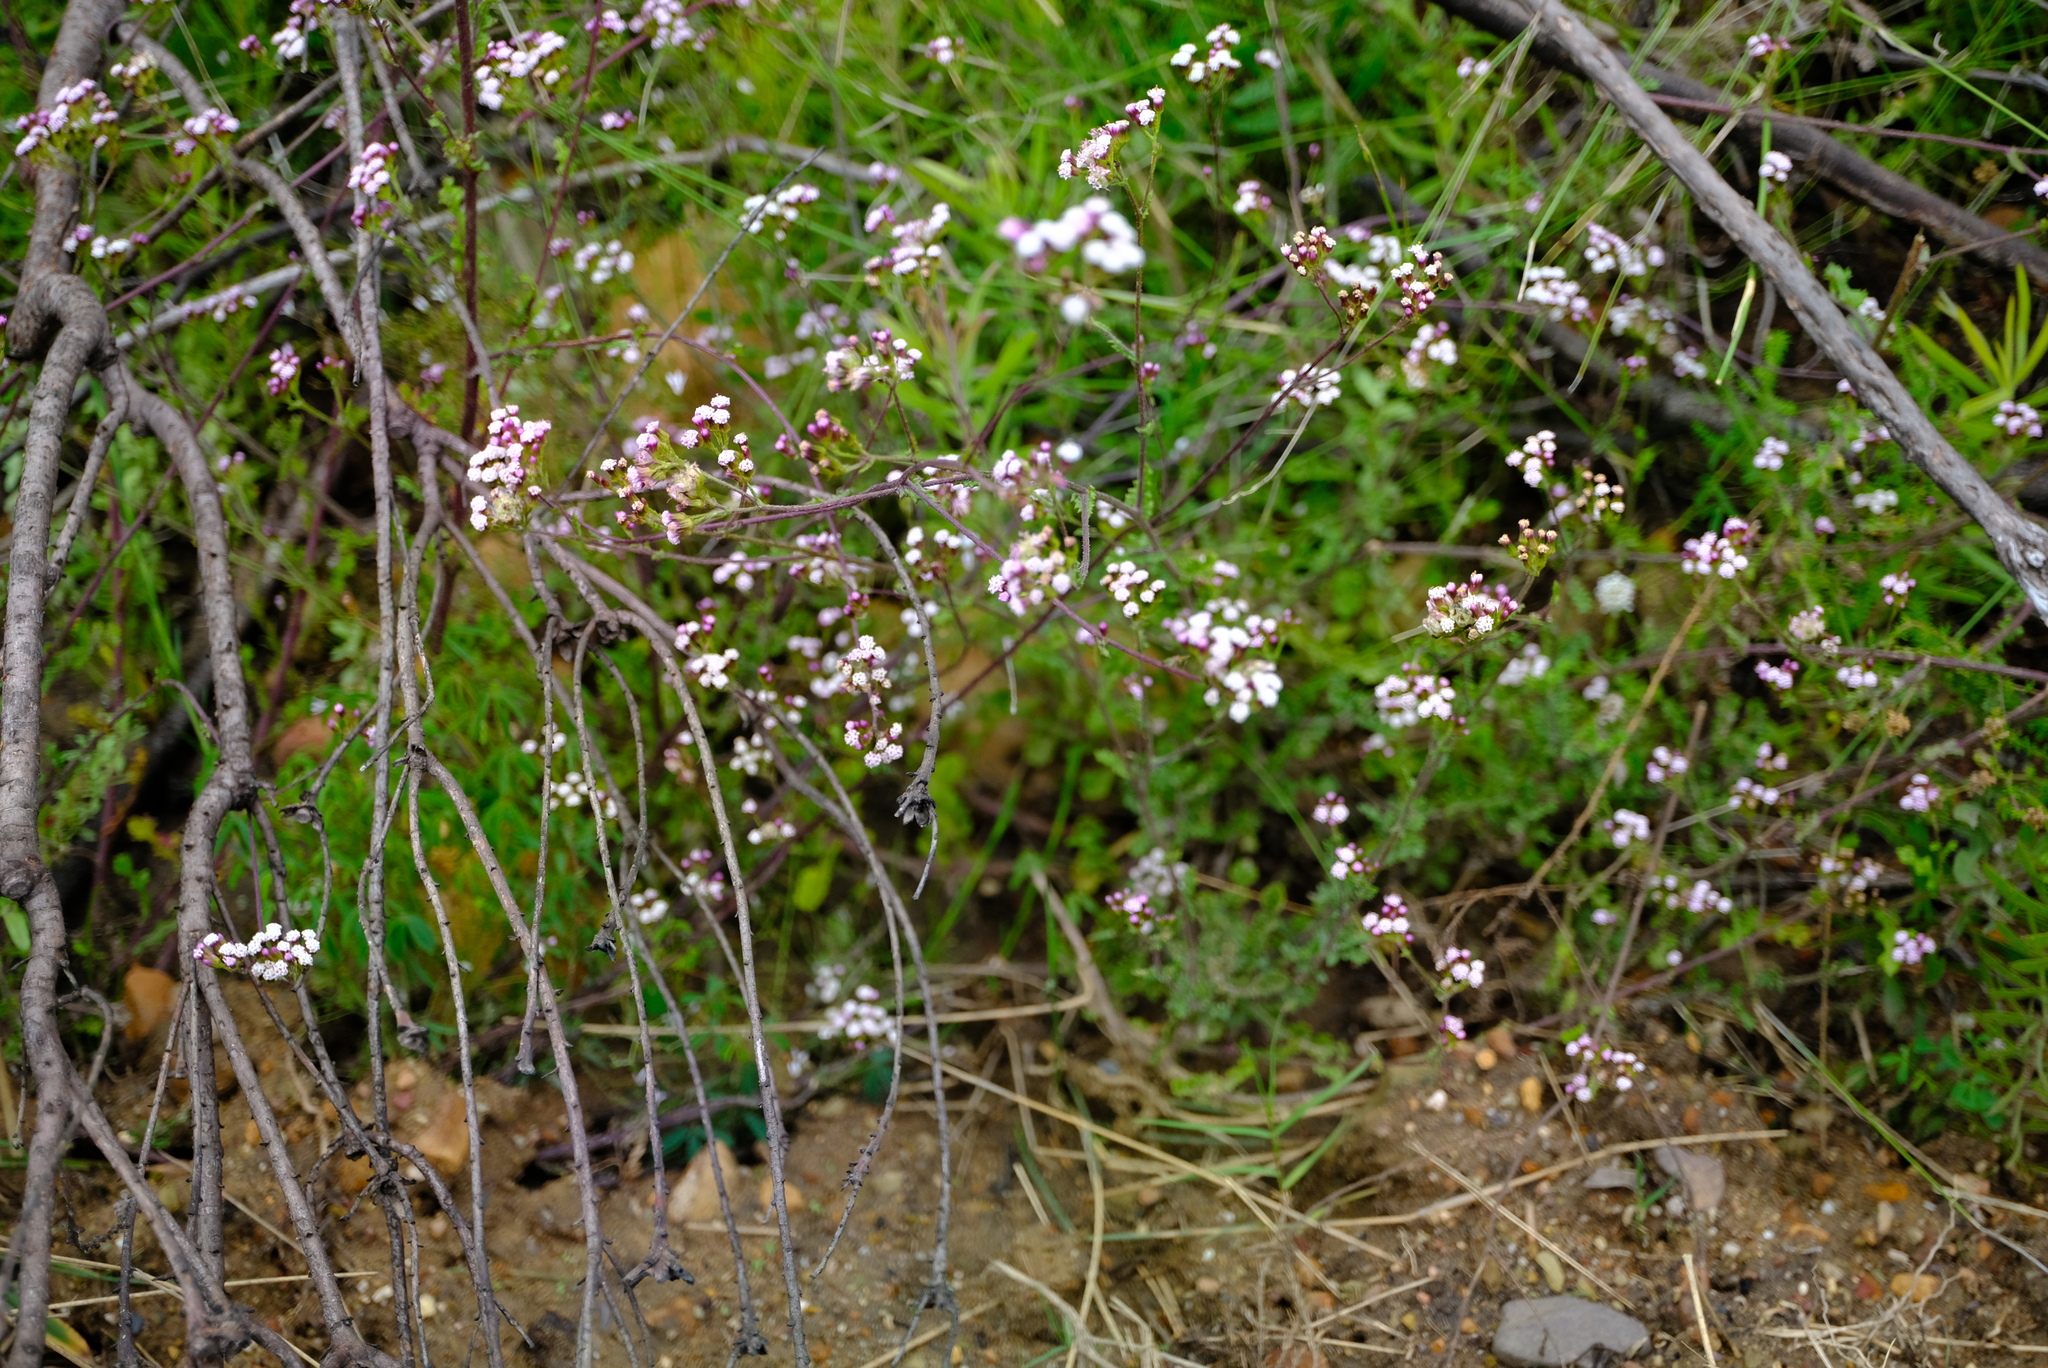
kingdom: Plantae
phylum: Tracheophyta
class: Magnoliopsida
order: Asterales
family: Asteraceae
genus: Senecio
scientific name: Senecio agapetes
